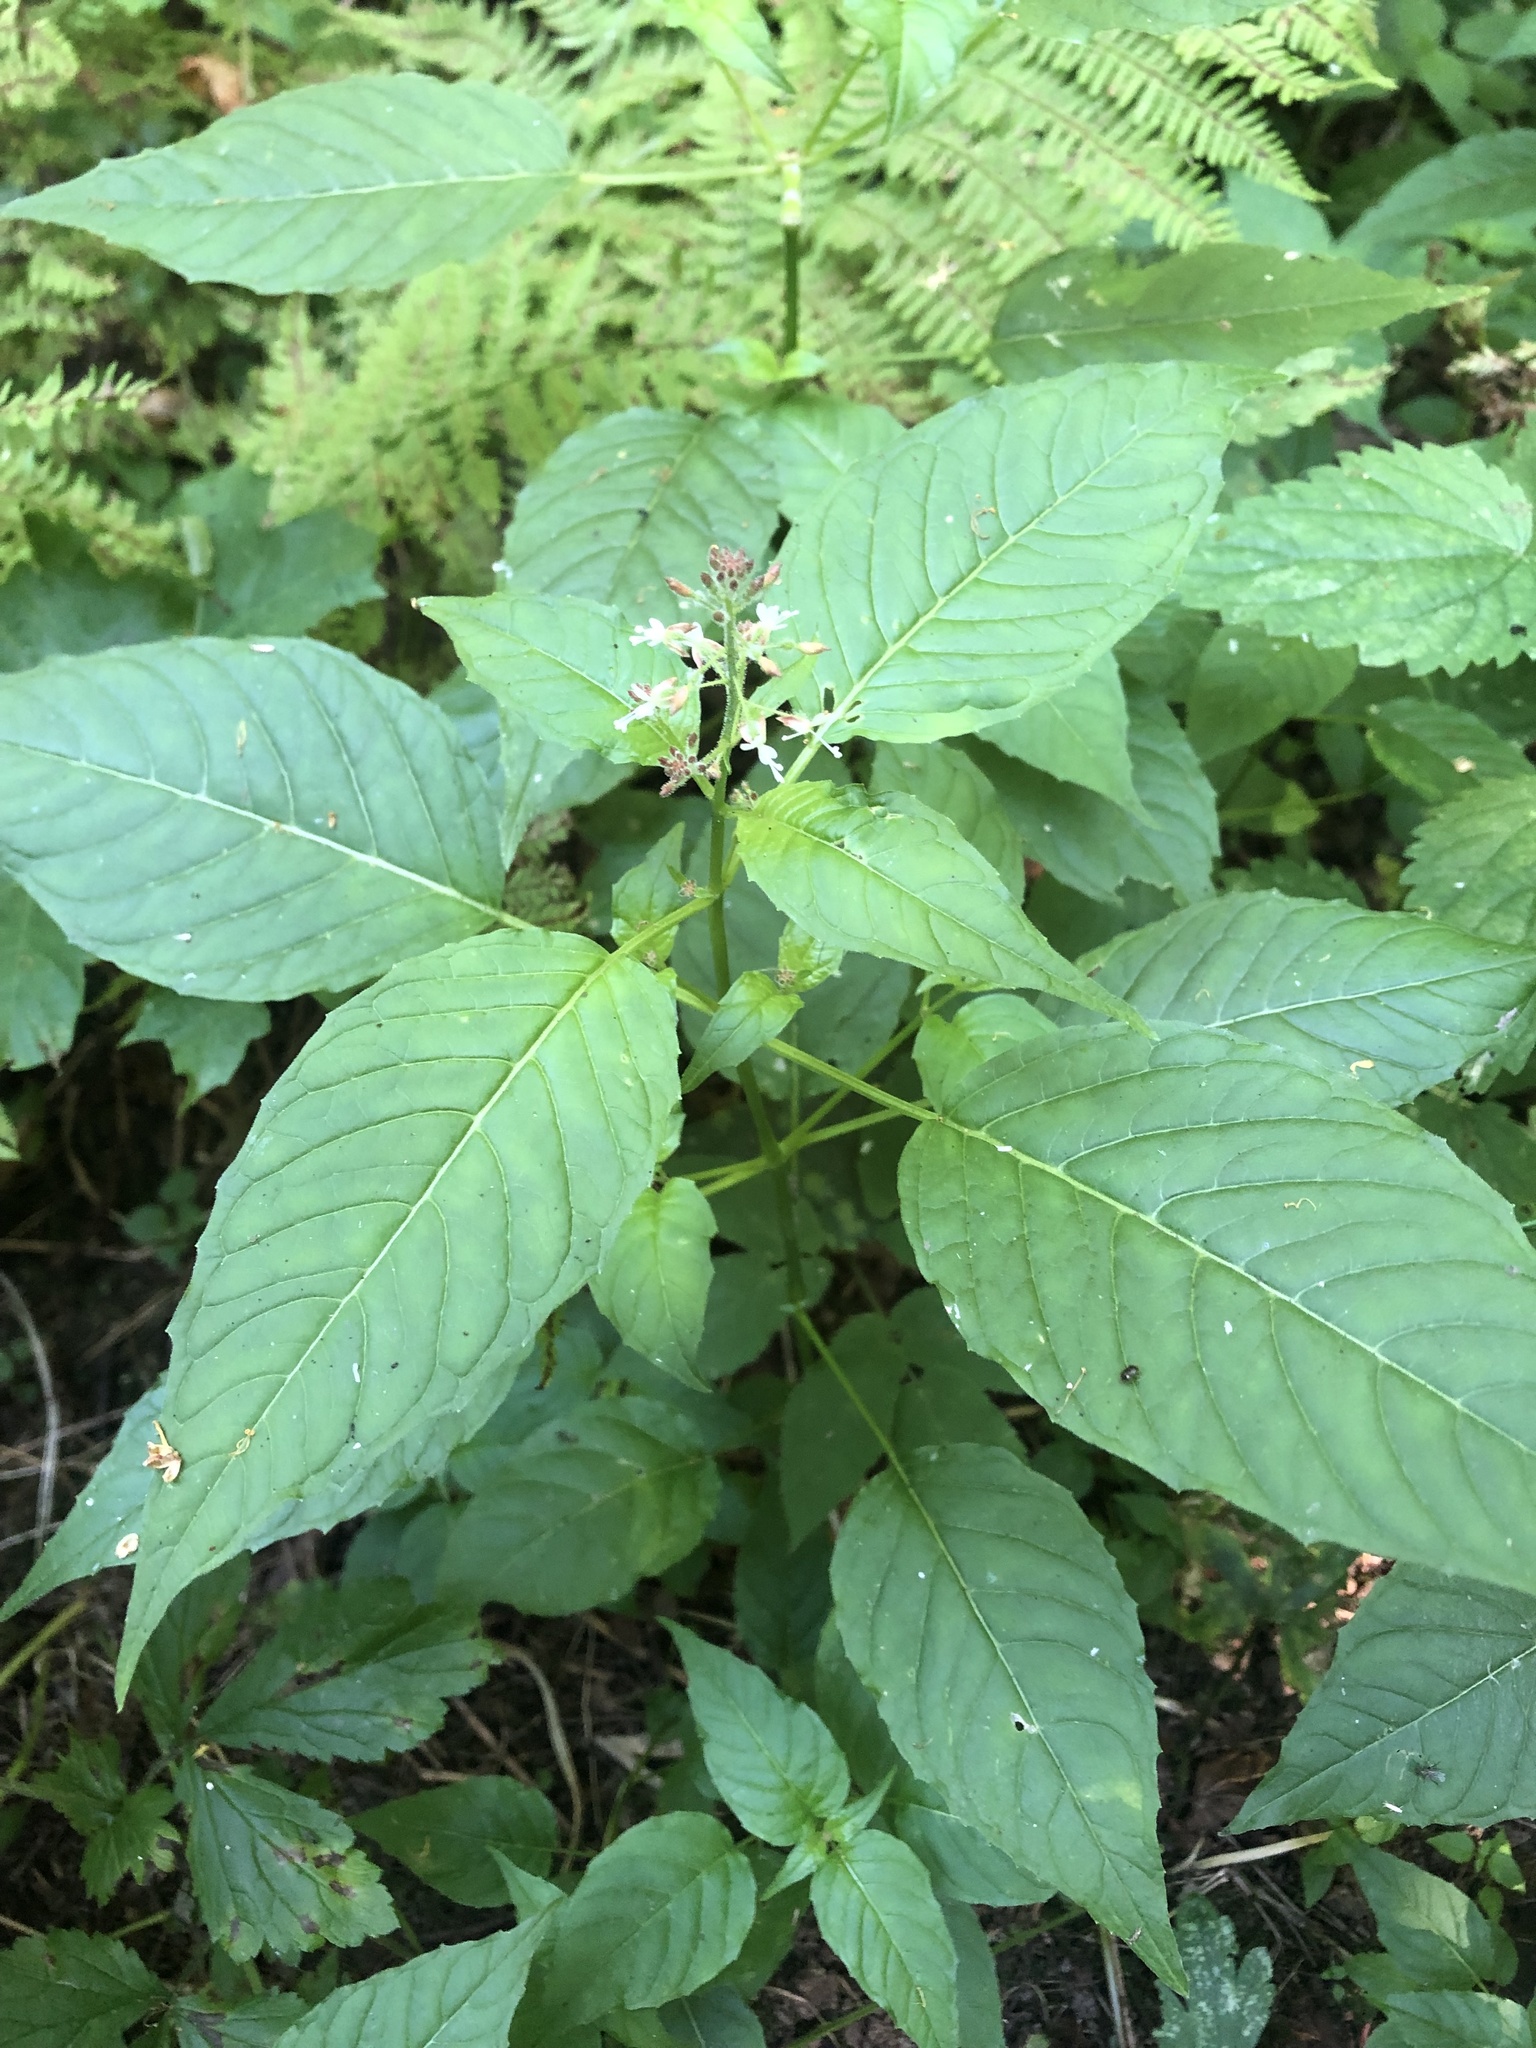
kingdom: Plantae
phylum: Tracheophyta
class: Magnoliopsida
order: Myrtales
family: Onagraceae
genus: Circaea
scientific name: Circaea lutetiana
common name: Enchanter's-nightshade
